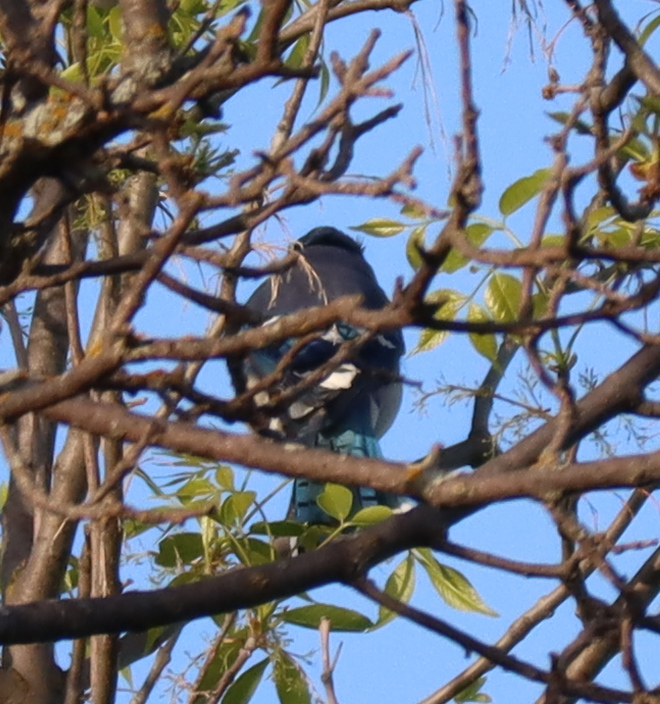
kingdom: Animalia
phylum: Chordata
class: Aves
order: Passeriformes
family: Corvidae
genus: Cyanocitta
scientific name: Cyanocitta cristata
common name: Blue jay
